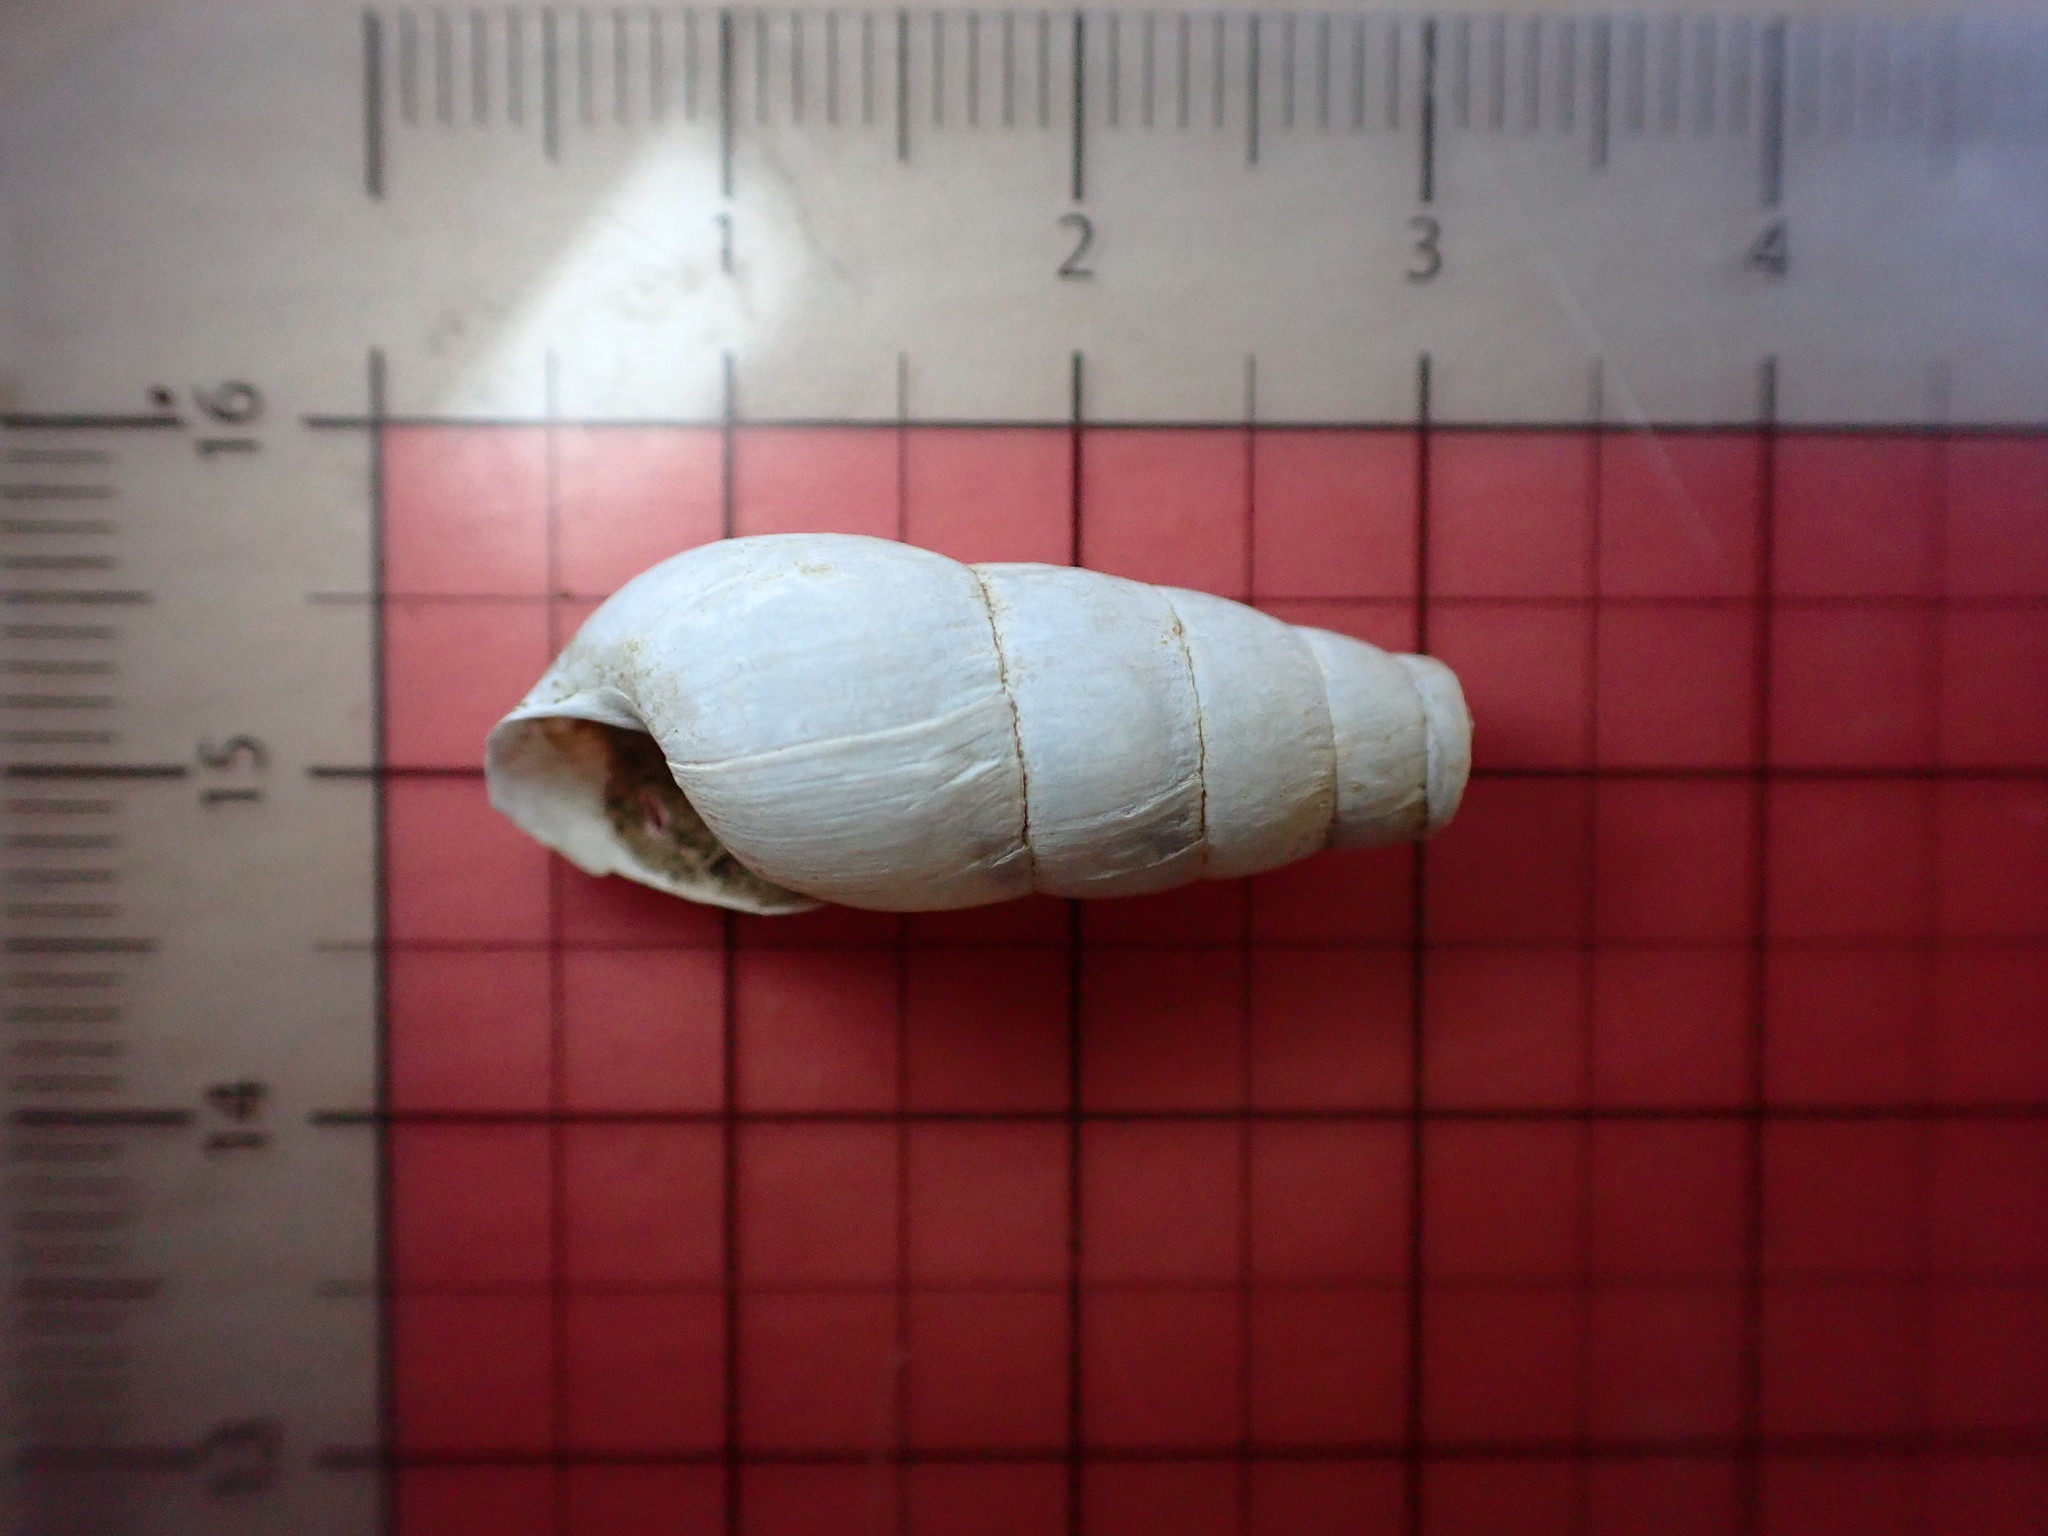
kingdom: Animalia
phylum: Mollusca
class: Gastropoda
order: Stylommatophora
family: Achatinidae
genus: Rumina
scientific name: Rumina decollata
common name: Decollate snail
